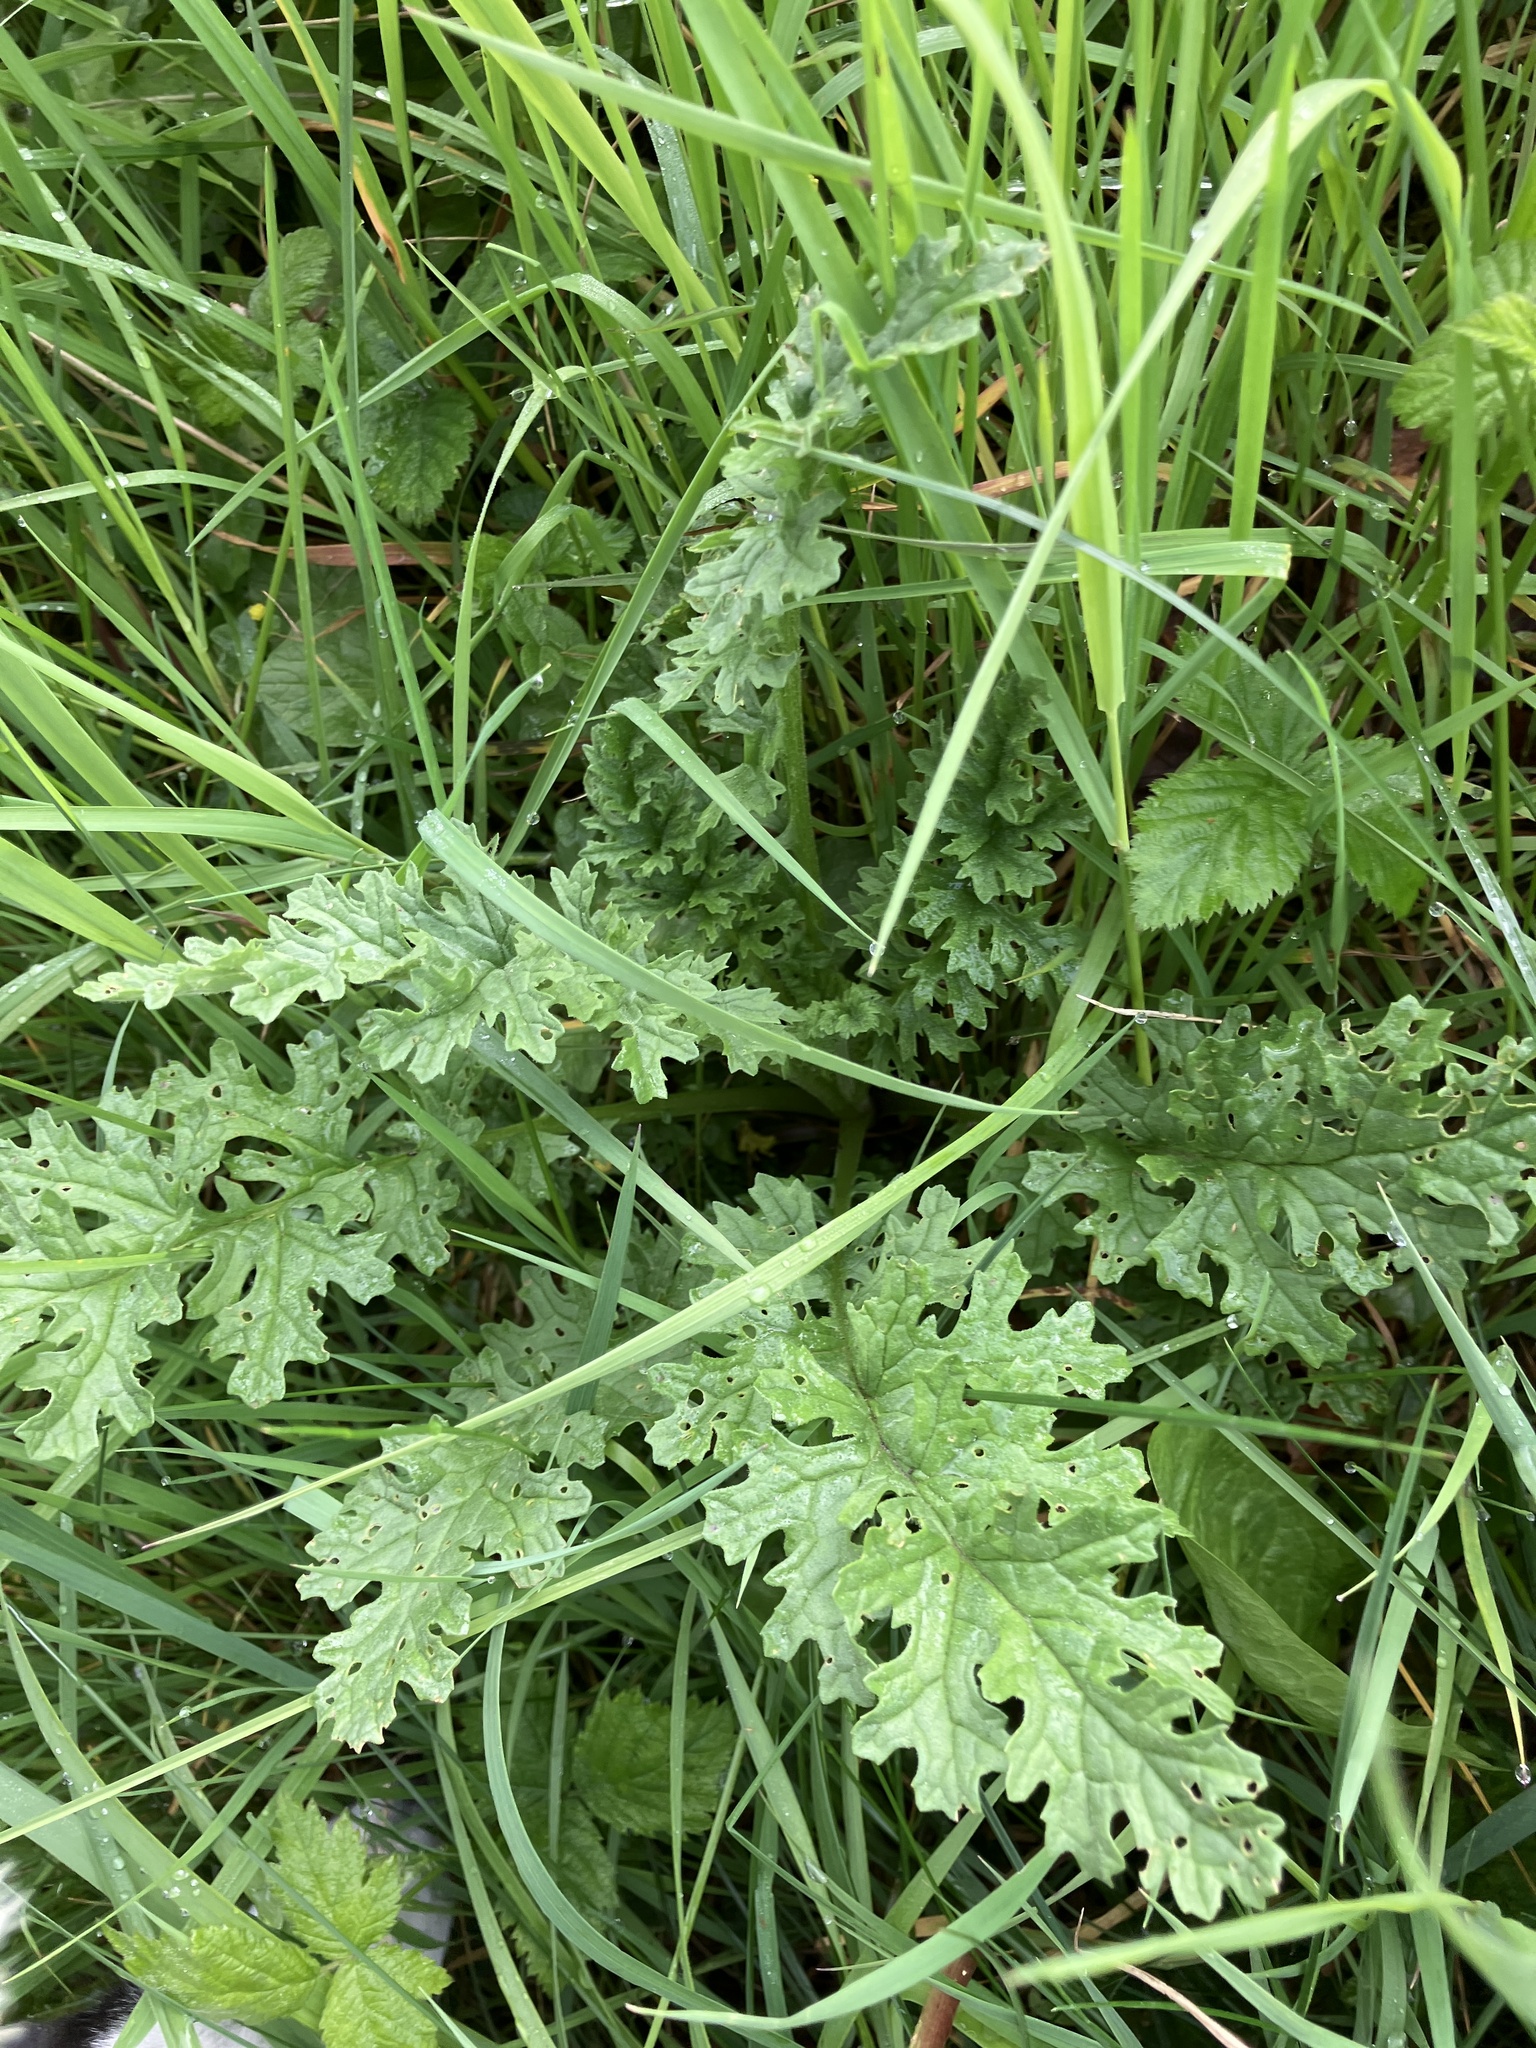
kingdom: Plantae
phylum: Tracheophyta
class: Magnoliopsida
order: Asterales
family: Asteraceae
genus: Jacobaea
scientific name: Jacobaea vulgaris
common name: Stinking willie
